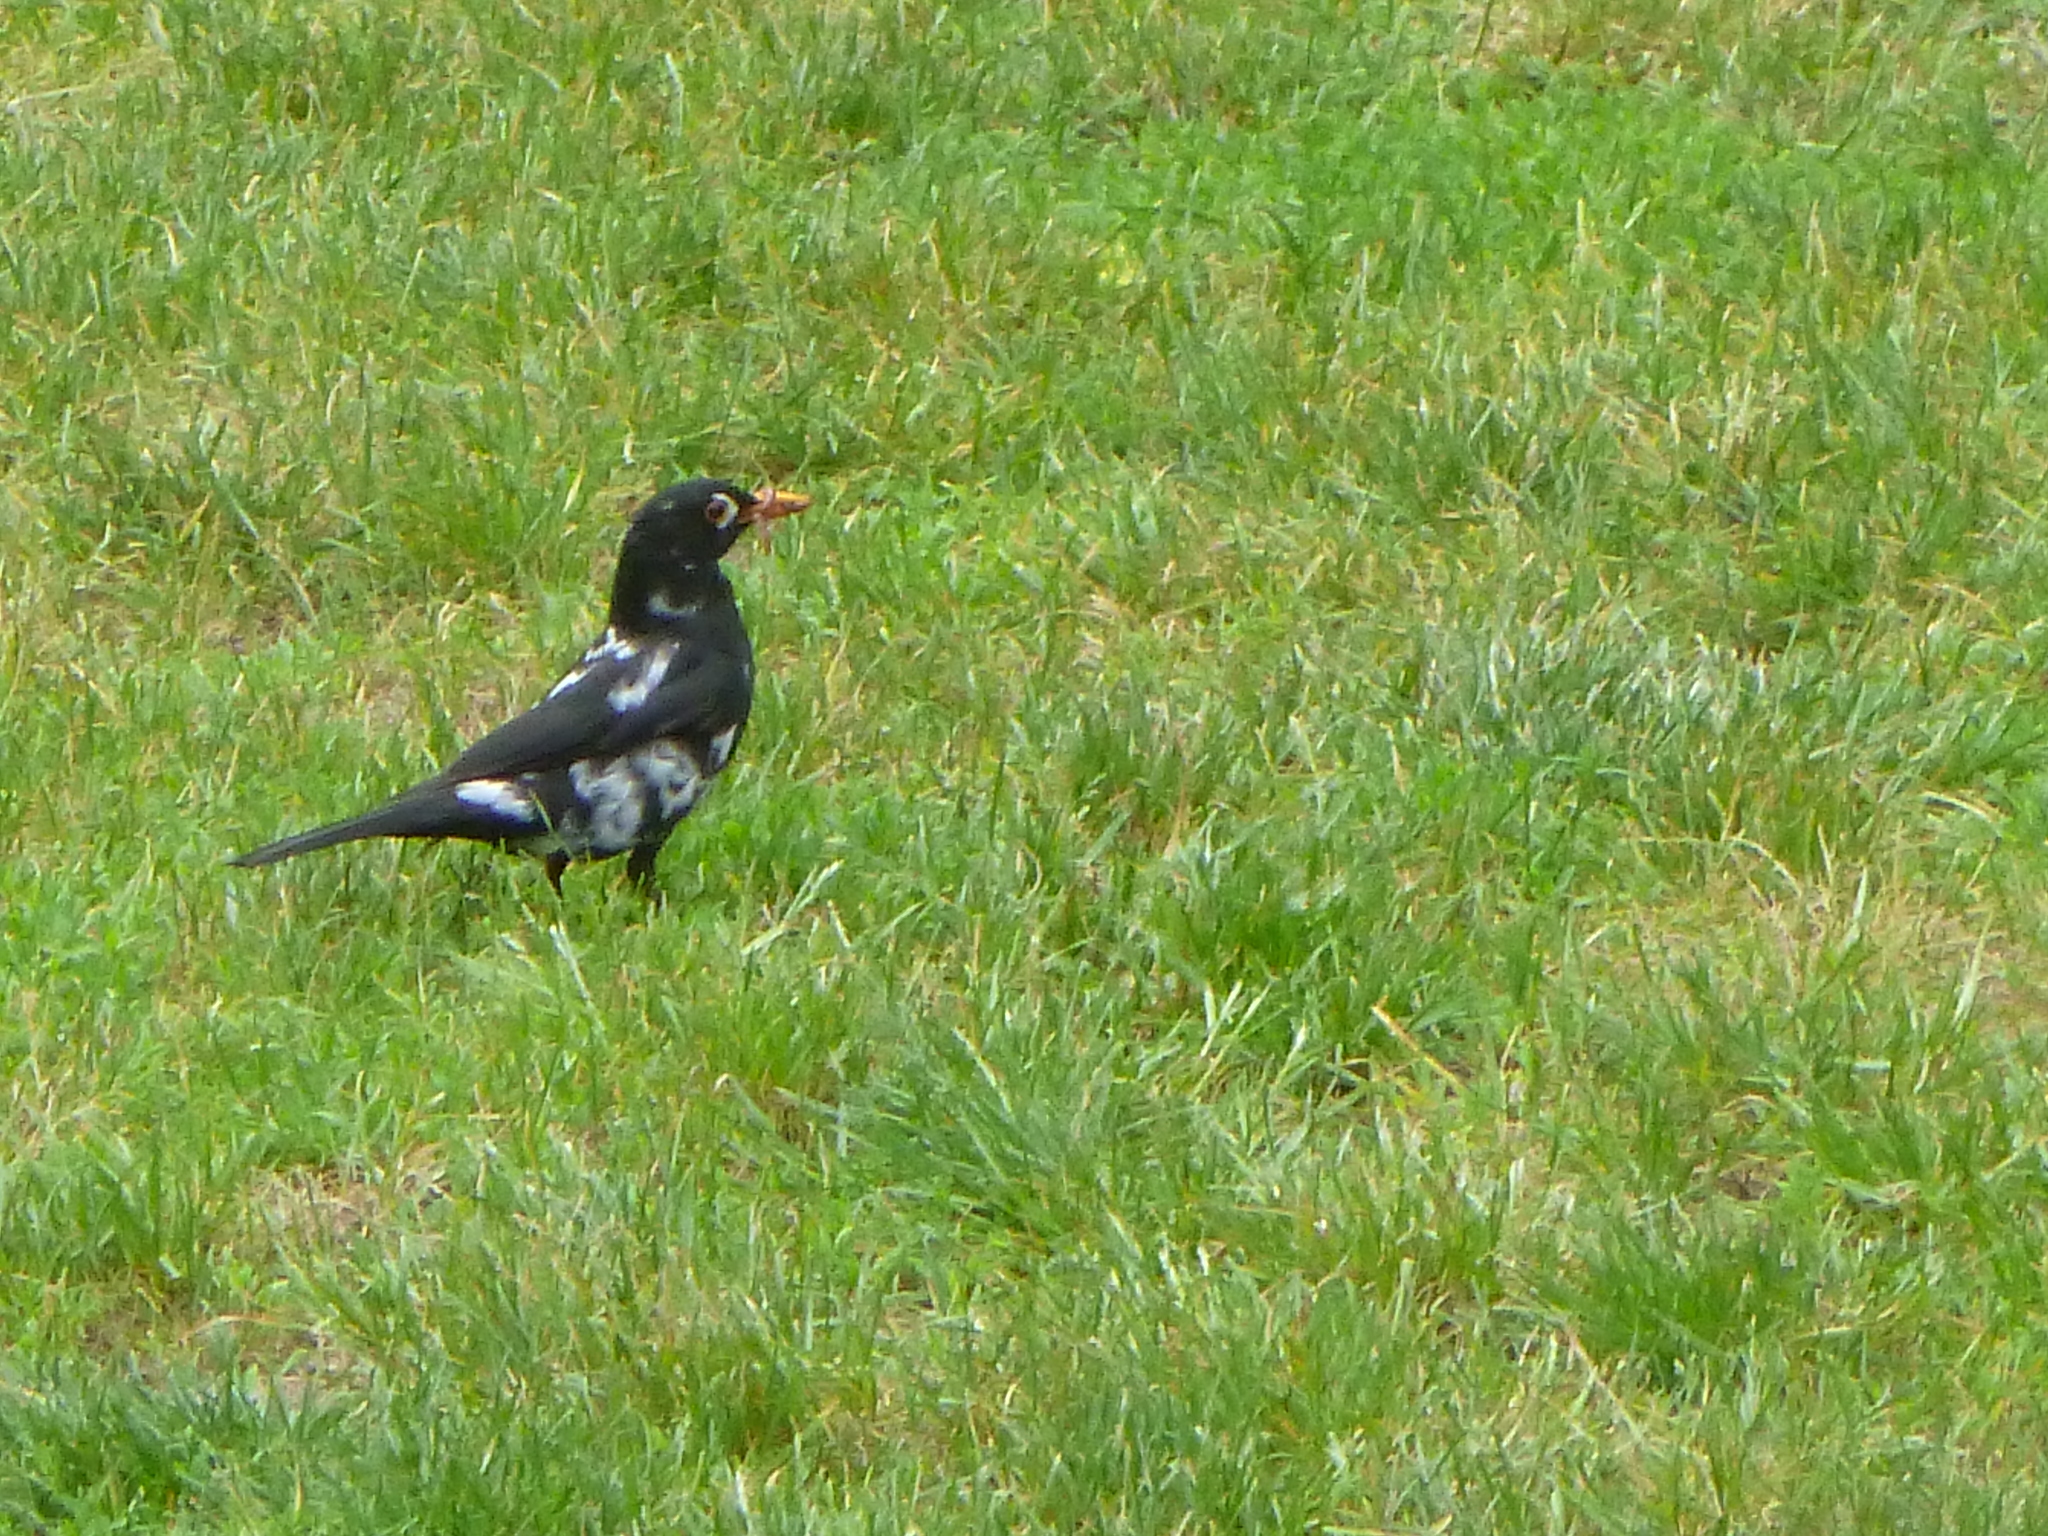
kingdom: Animalia
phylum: Chordata
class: Aves
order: Passeriformes
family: Turdidae
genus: Turdus
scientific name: Turdus merula
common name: Common blackbird
